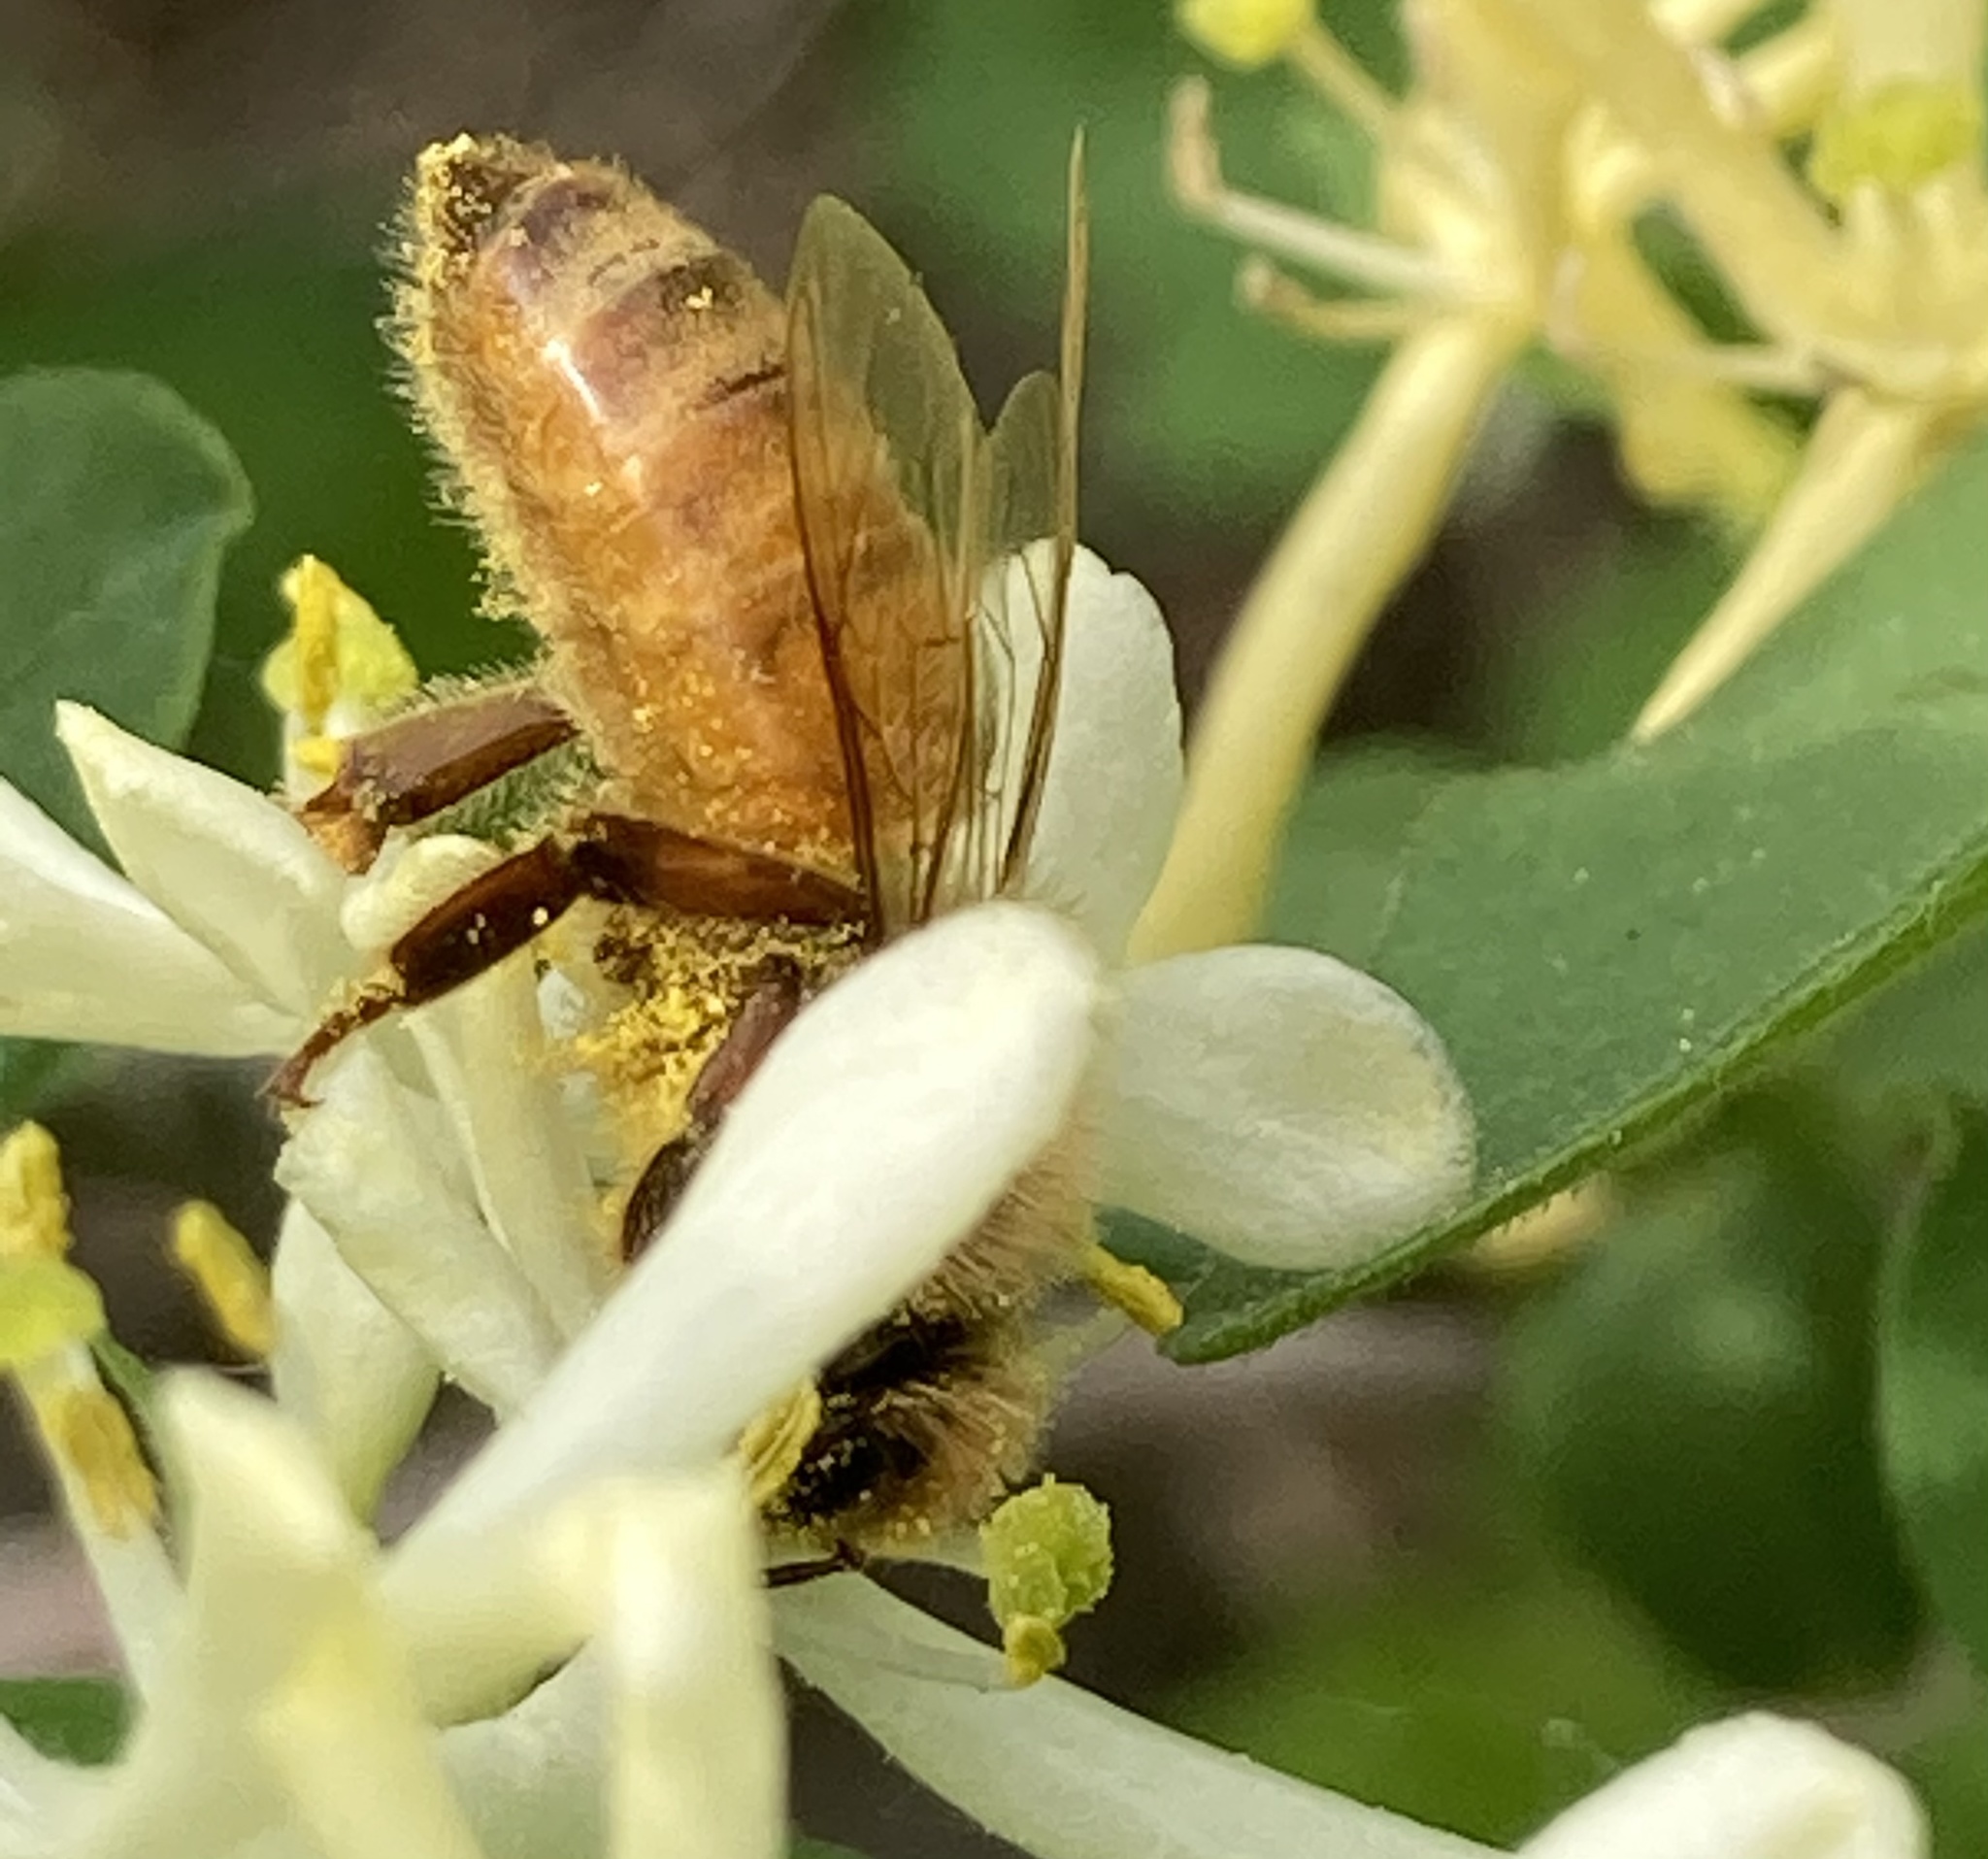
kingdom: Animalia
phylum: Arthropoda
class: Insecta
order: Hymenoptera
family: Apidae
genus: Apis
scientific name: Apis mellifera
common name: Honey bee
